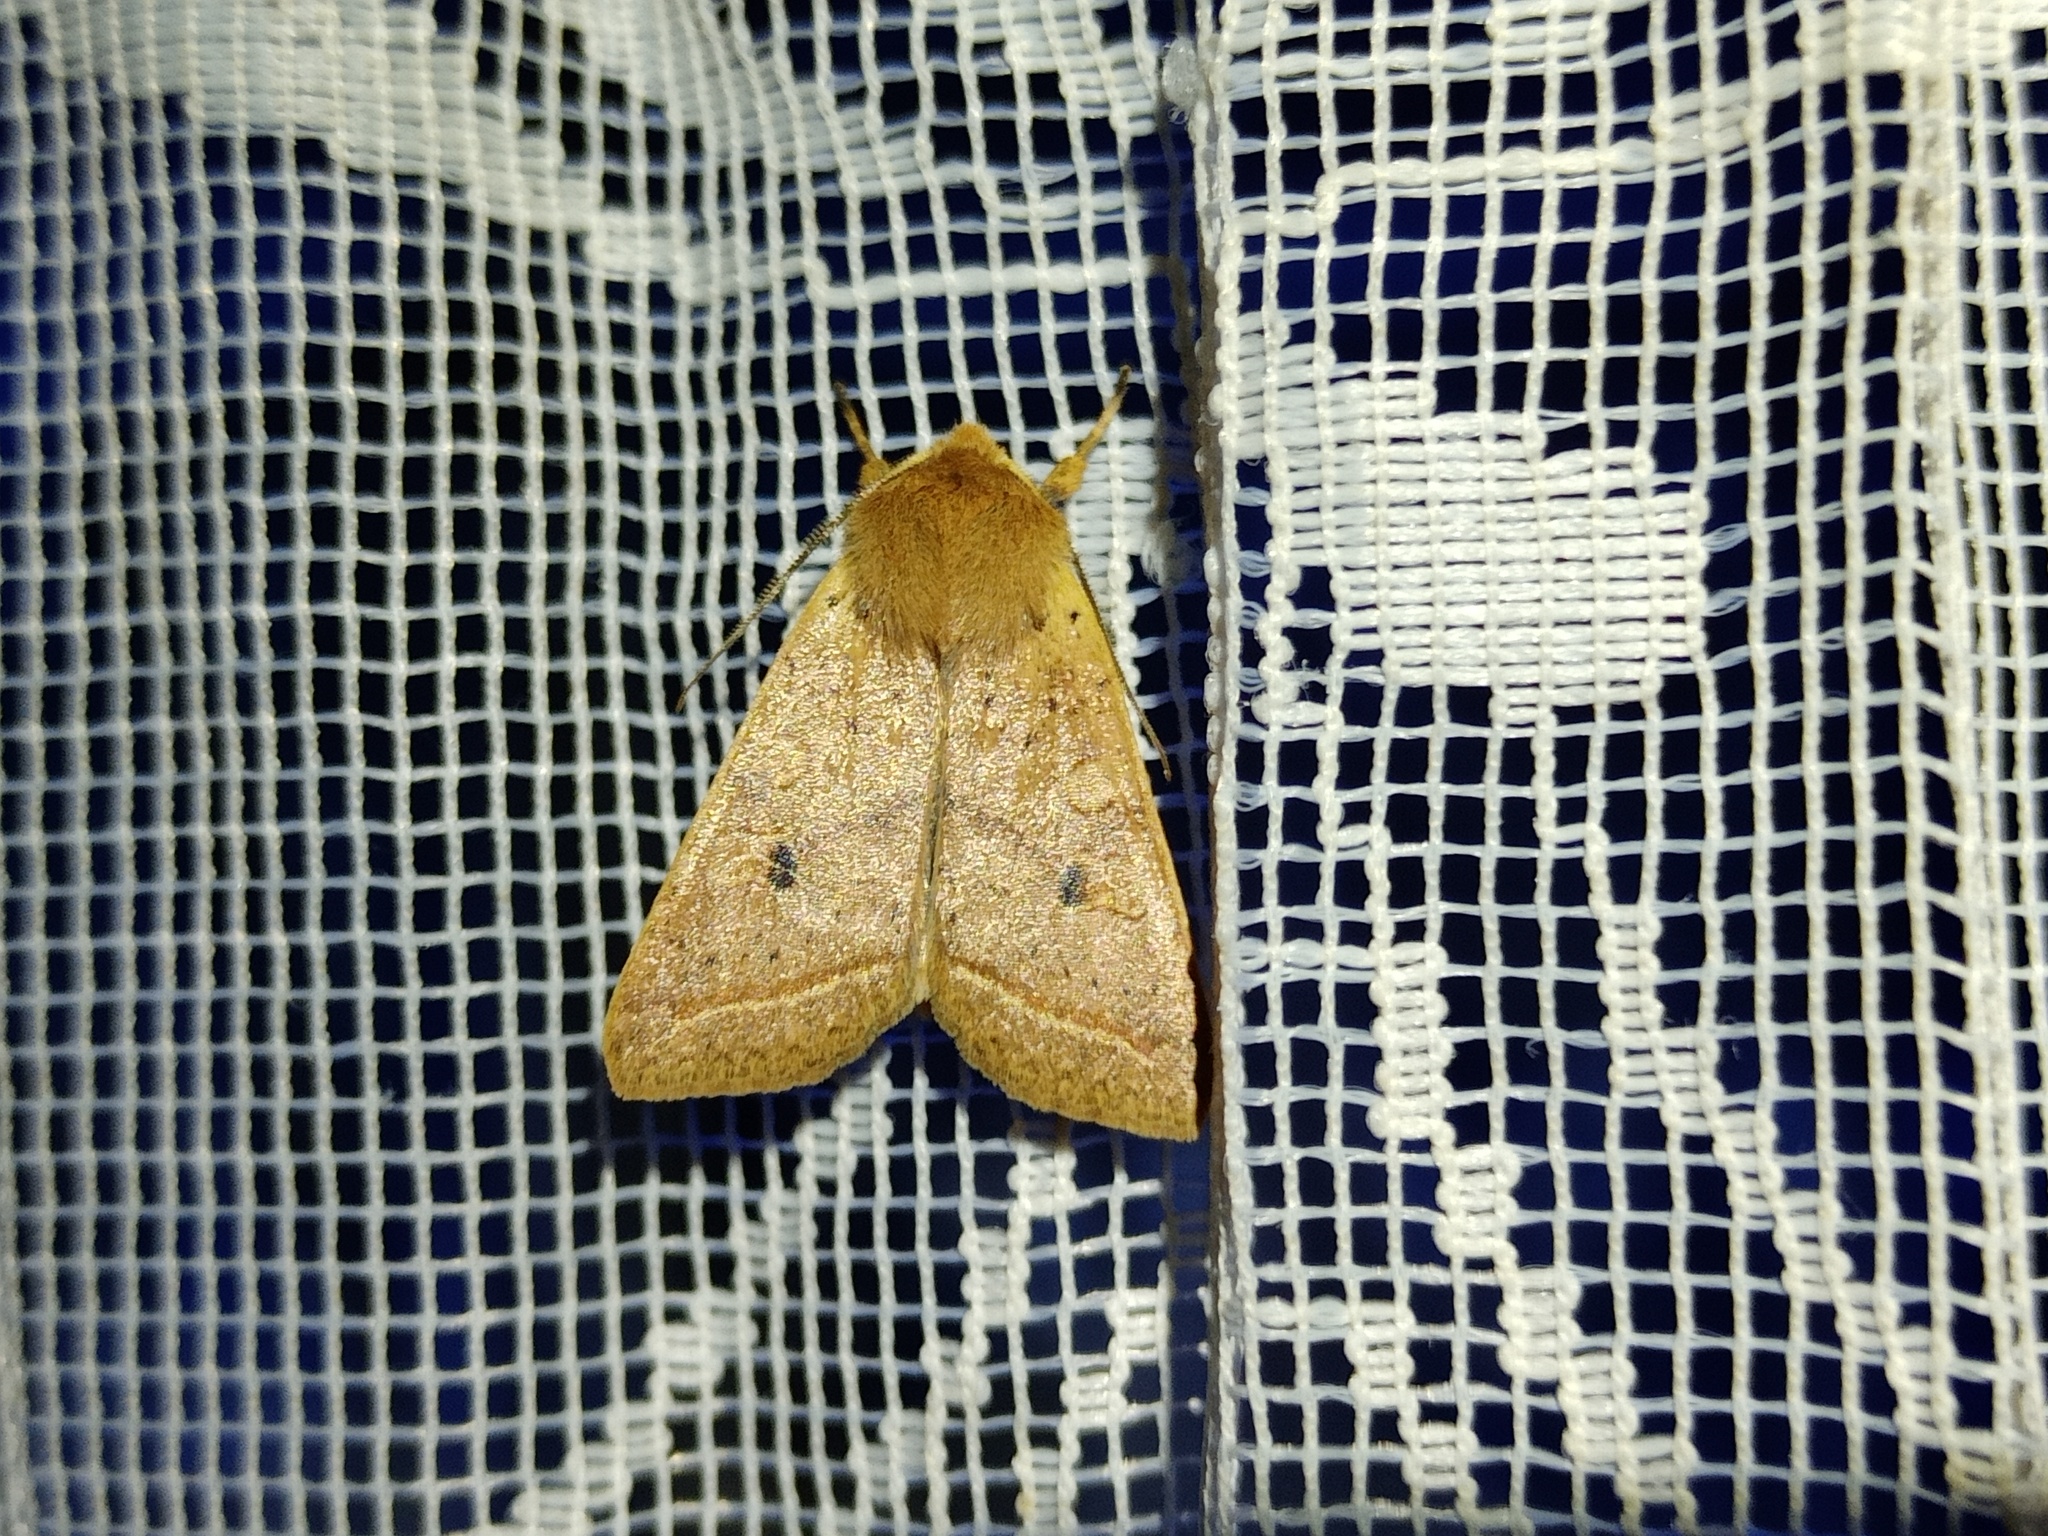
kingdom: Animalia
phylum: Arthropoda
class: Insecta
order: Lepidoptera
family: Noctuidae
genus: Agrochola
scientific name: Agrochola macilenta
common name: Yellow-line quaker
